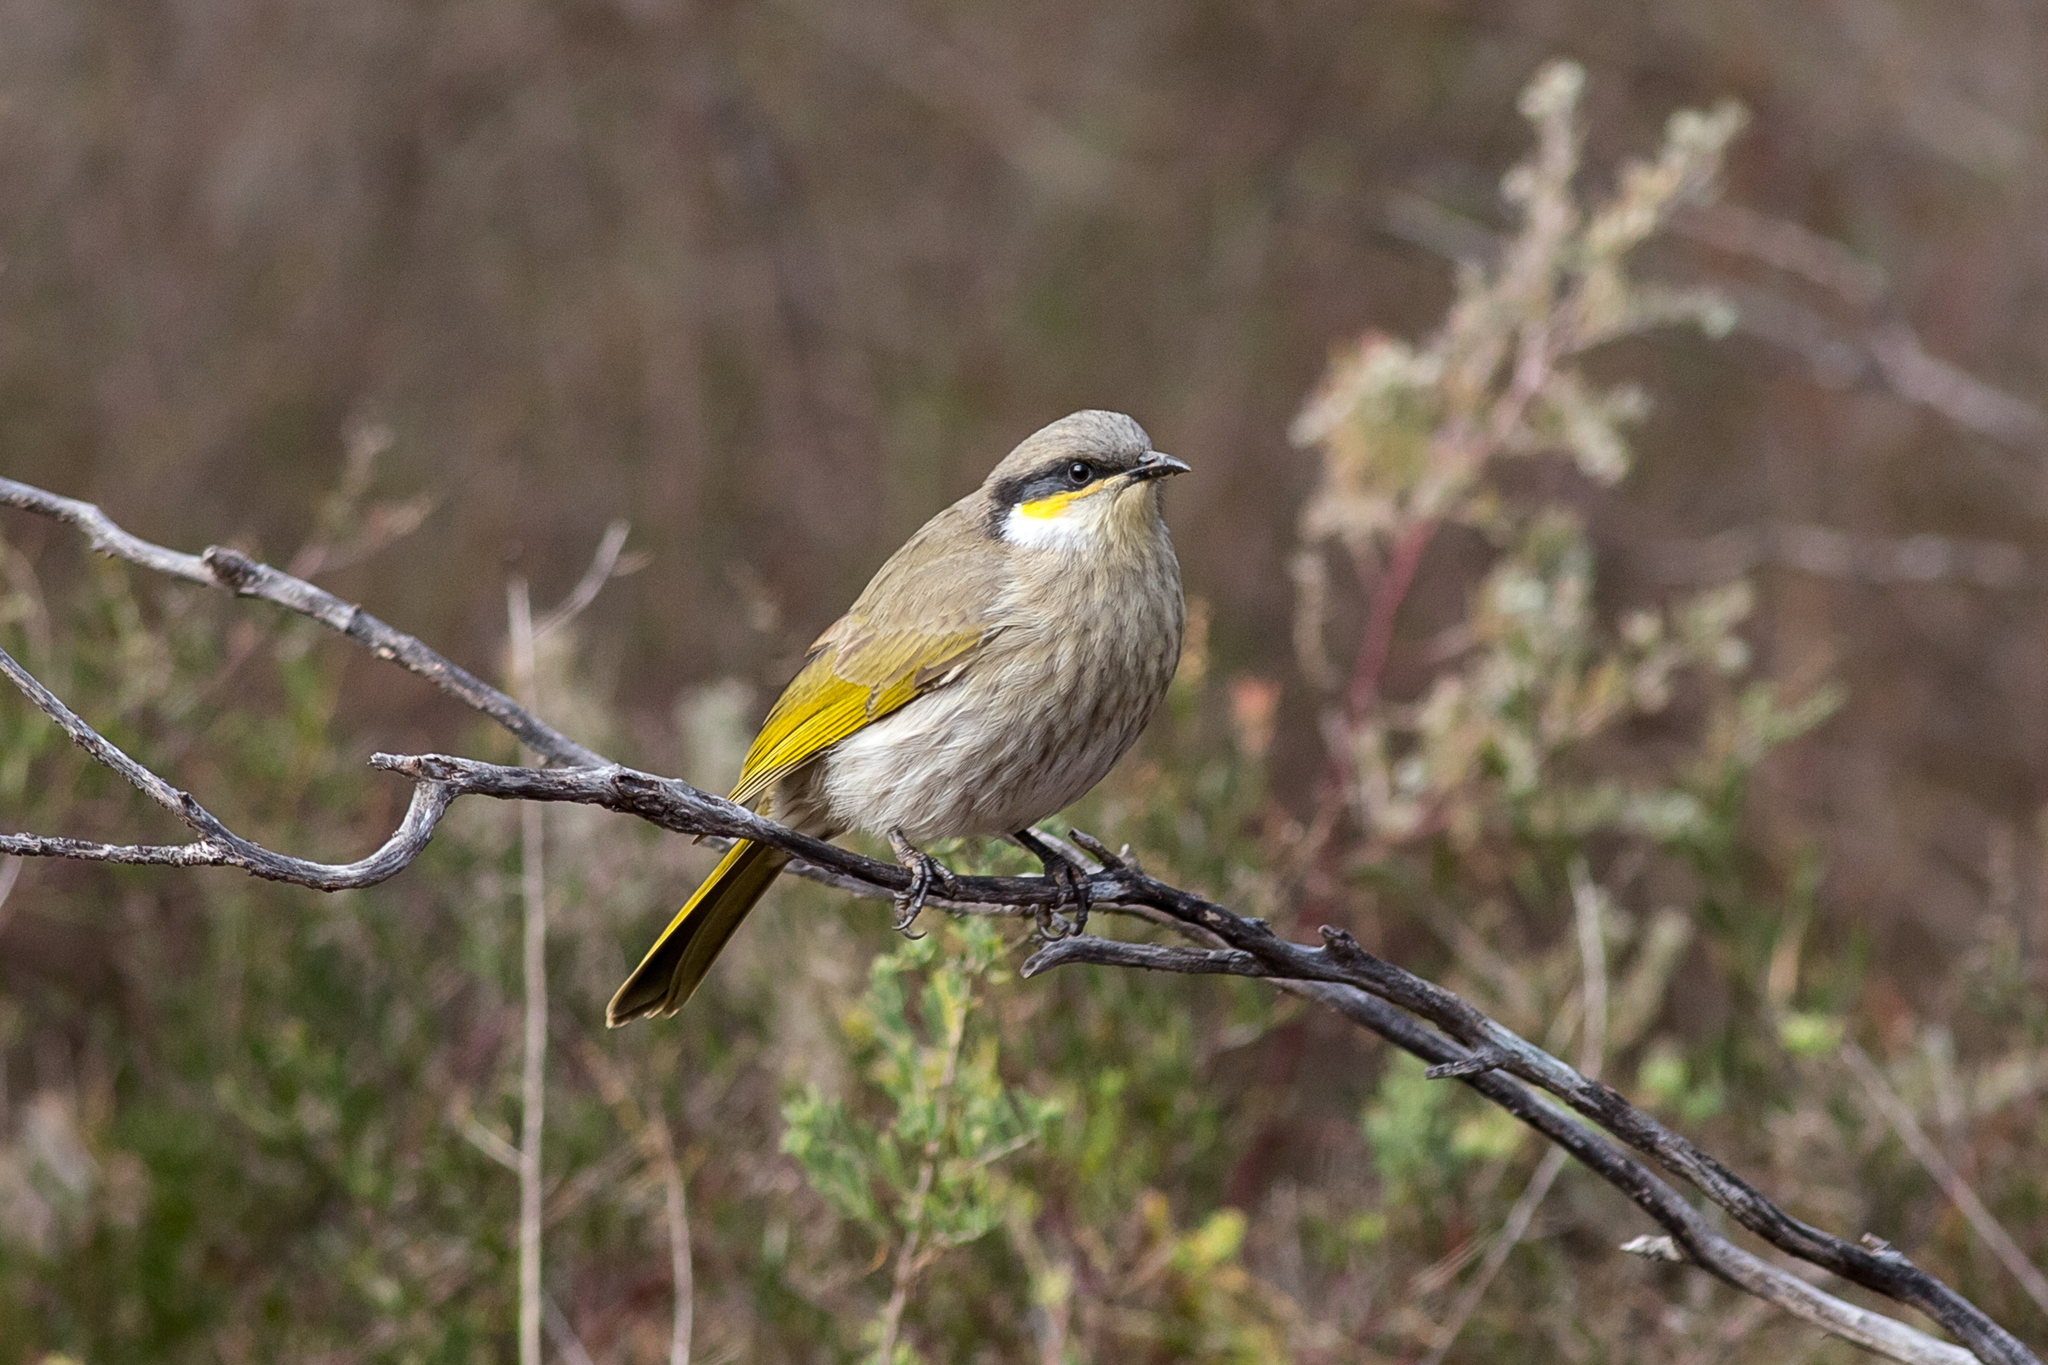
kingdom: Animalia
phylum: Chordata
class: Aves
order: Passeriformes
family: Meliphagidae
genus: Gavicalis
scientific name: Gavicalis virescens
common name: Singing honeyeater
